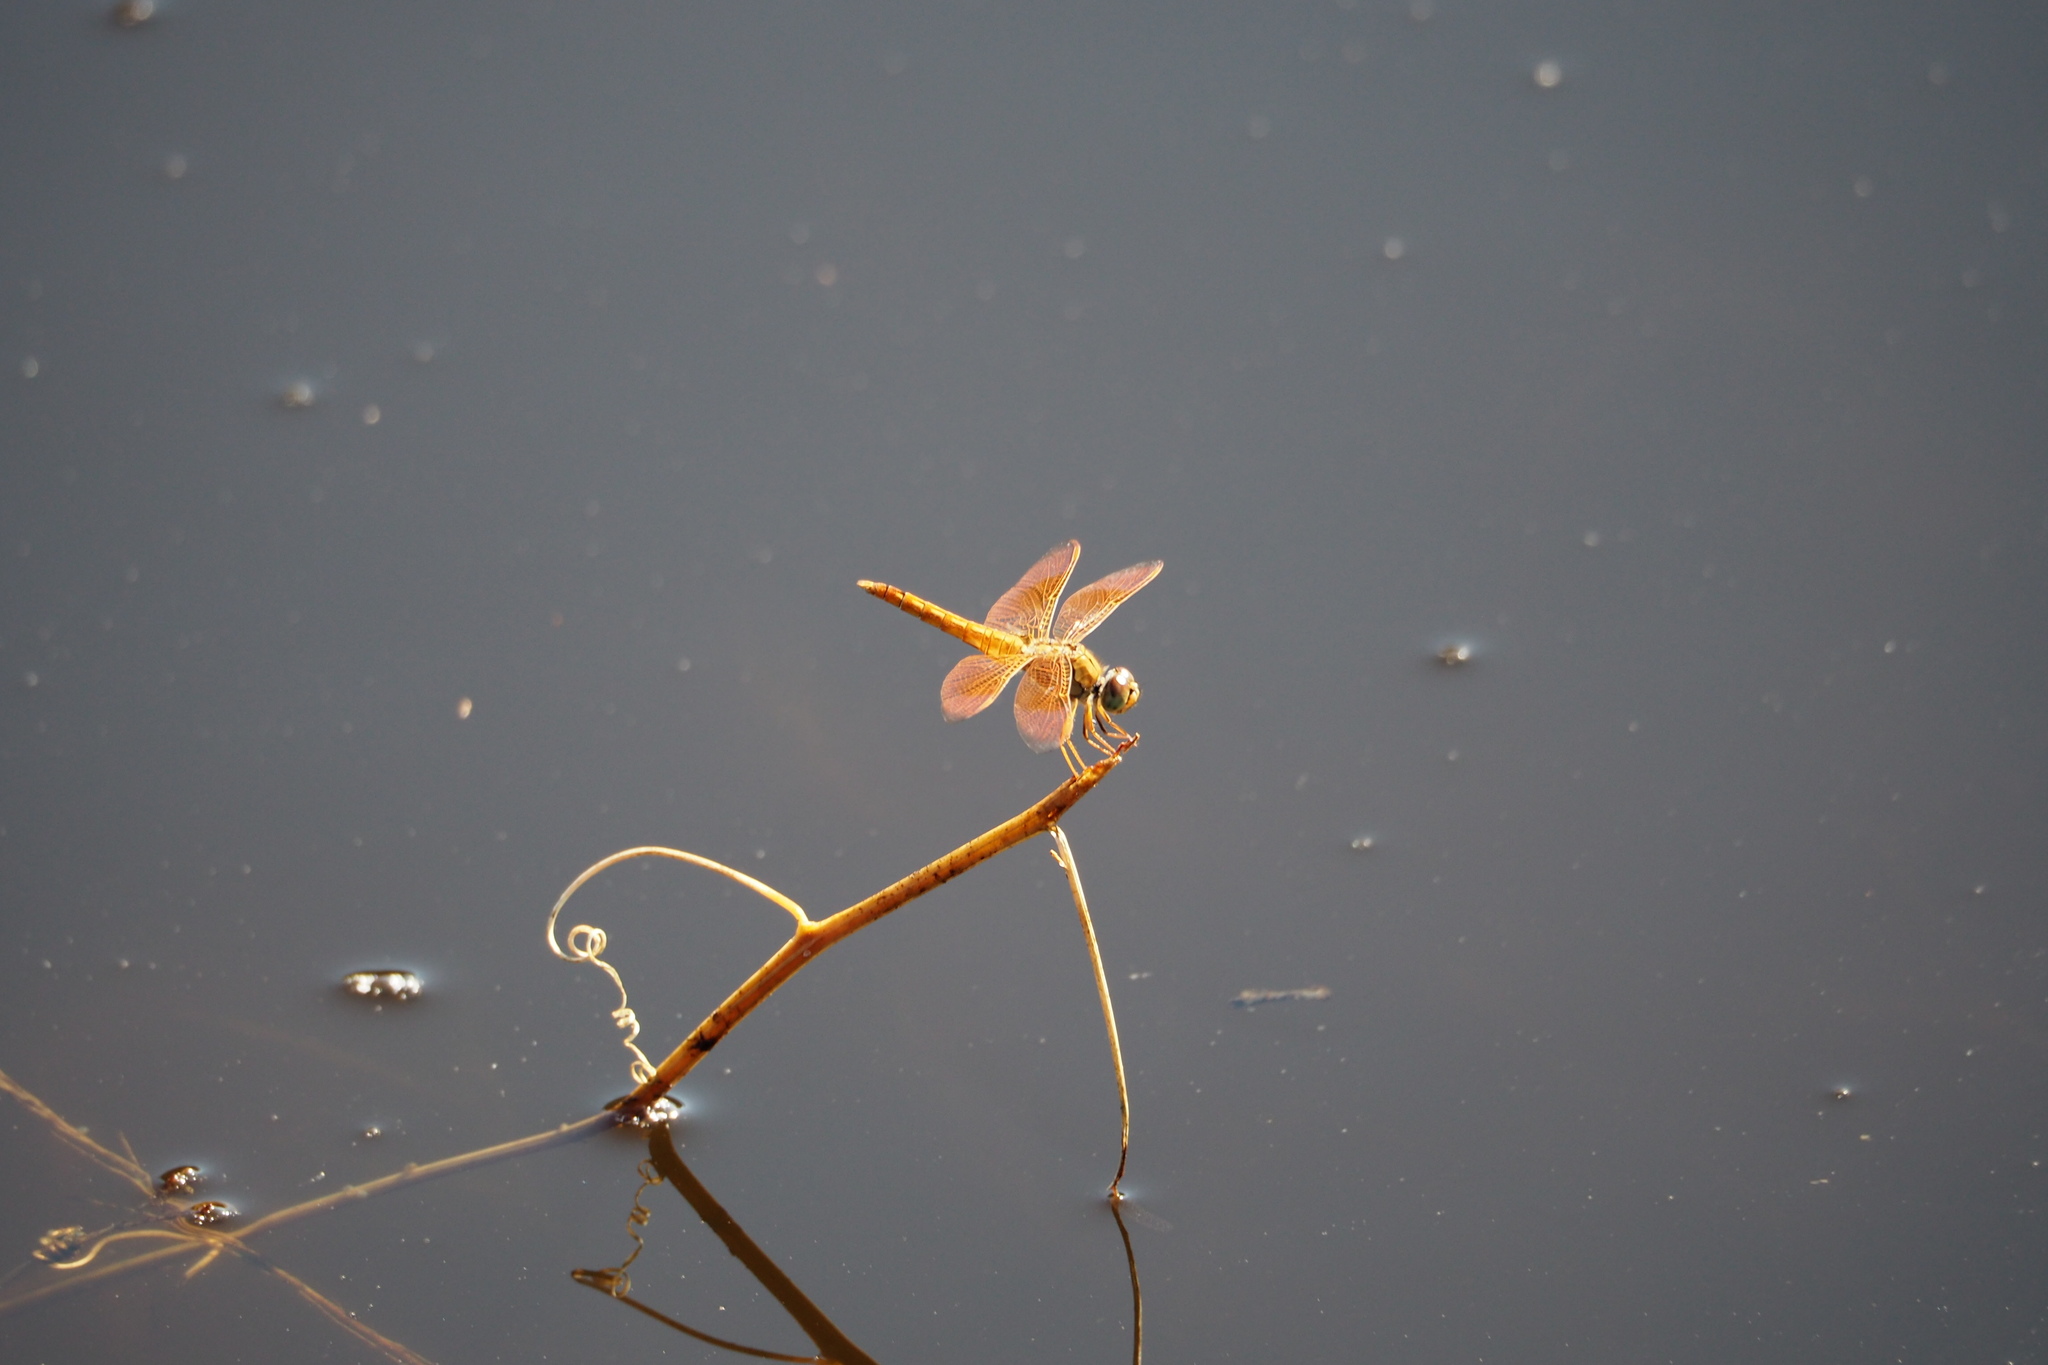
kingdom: Animalia
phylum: Arthropoda
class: Insecta
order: Odonata
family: Libellulidae
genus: Brachythemis
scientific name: Brachythemis contaminata
